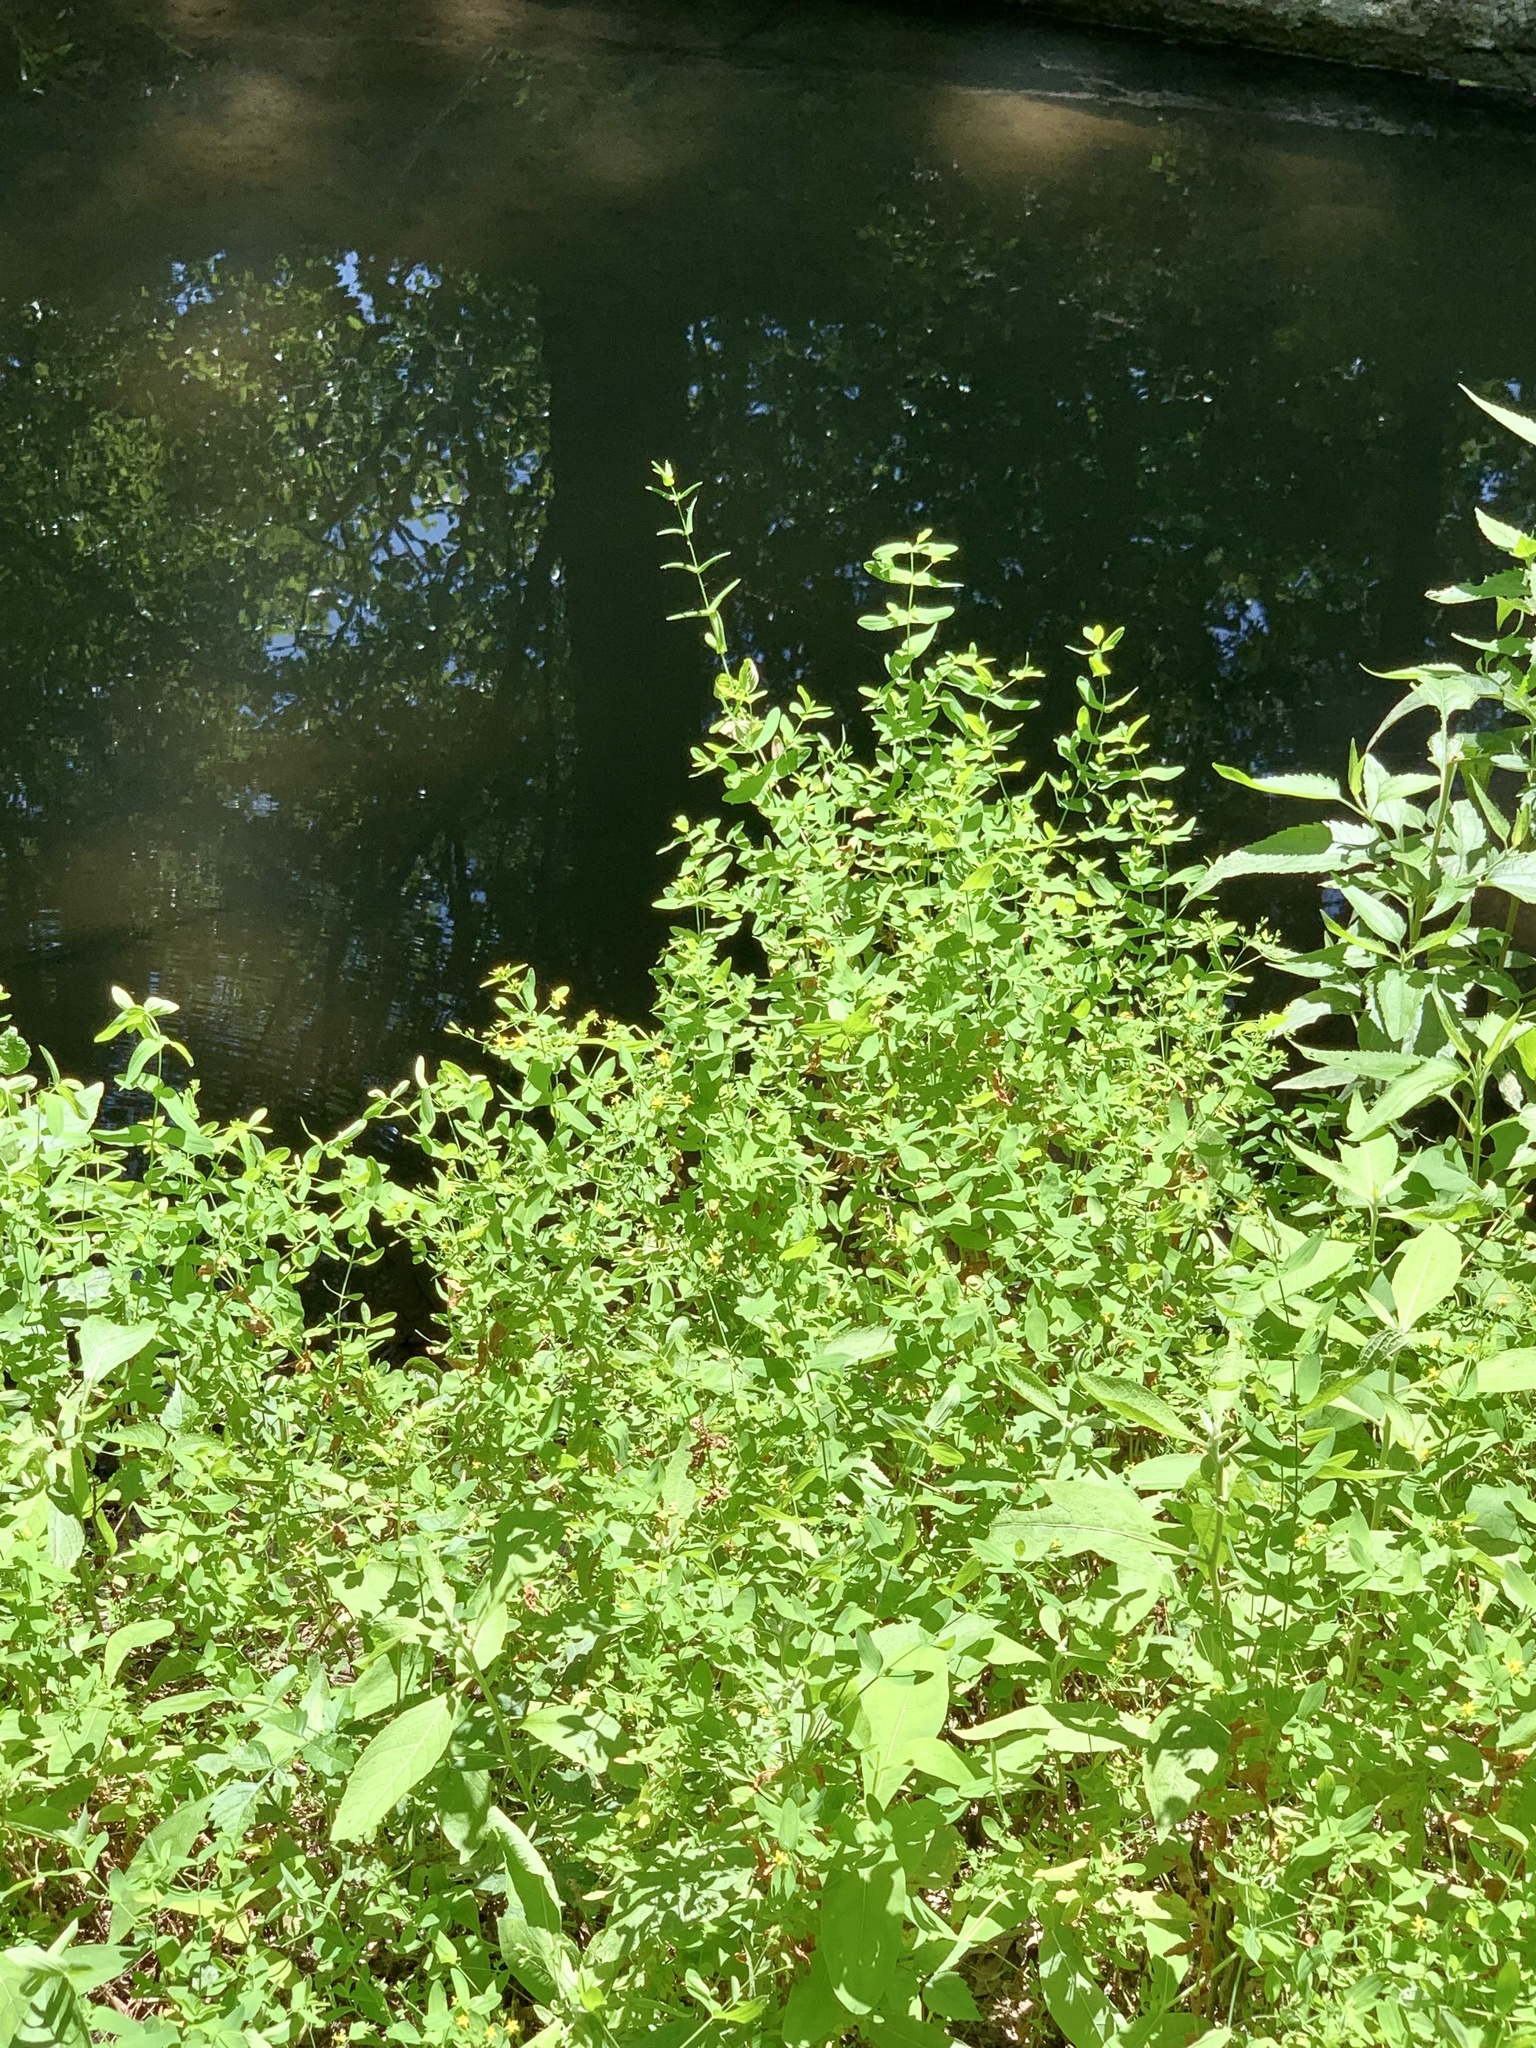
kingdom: Plantae
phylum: Tracheophyta
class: Magnoliopsida
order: Malpighiales
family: Hypericaceae
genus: Hypericum
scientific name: Hypericum mutilum
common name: Dwarf st. john's-wort
